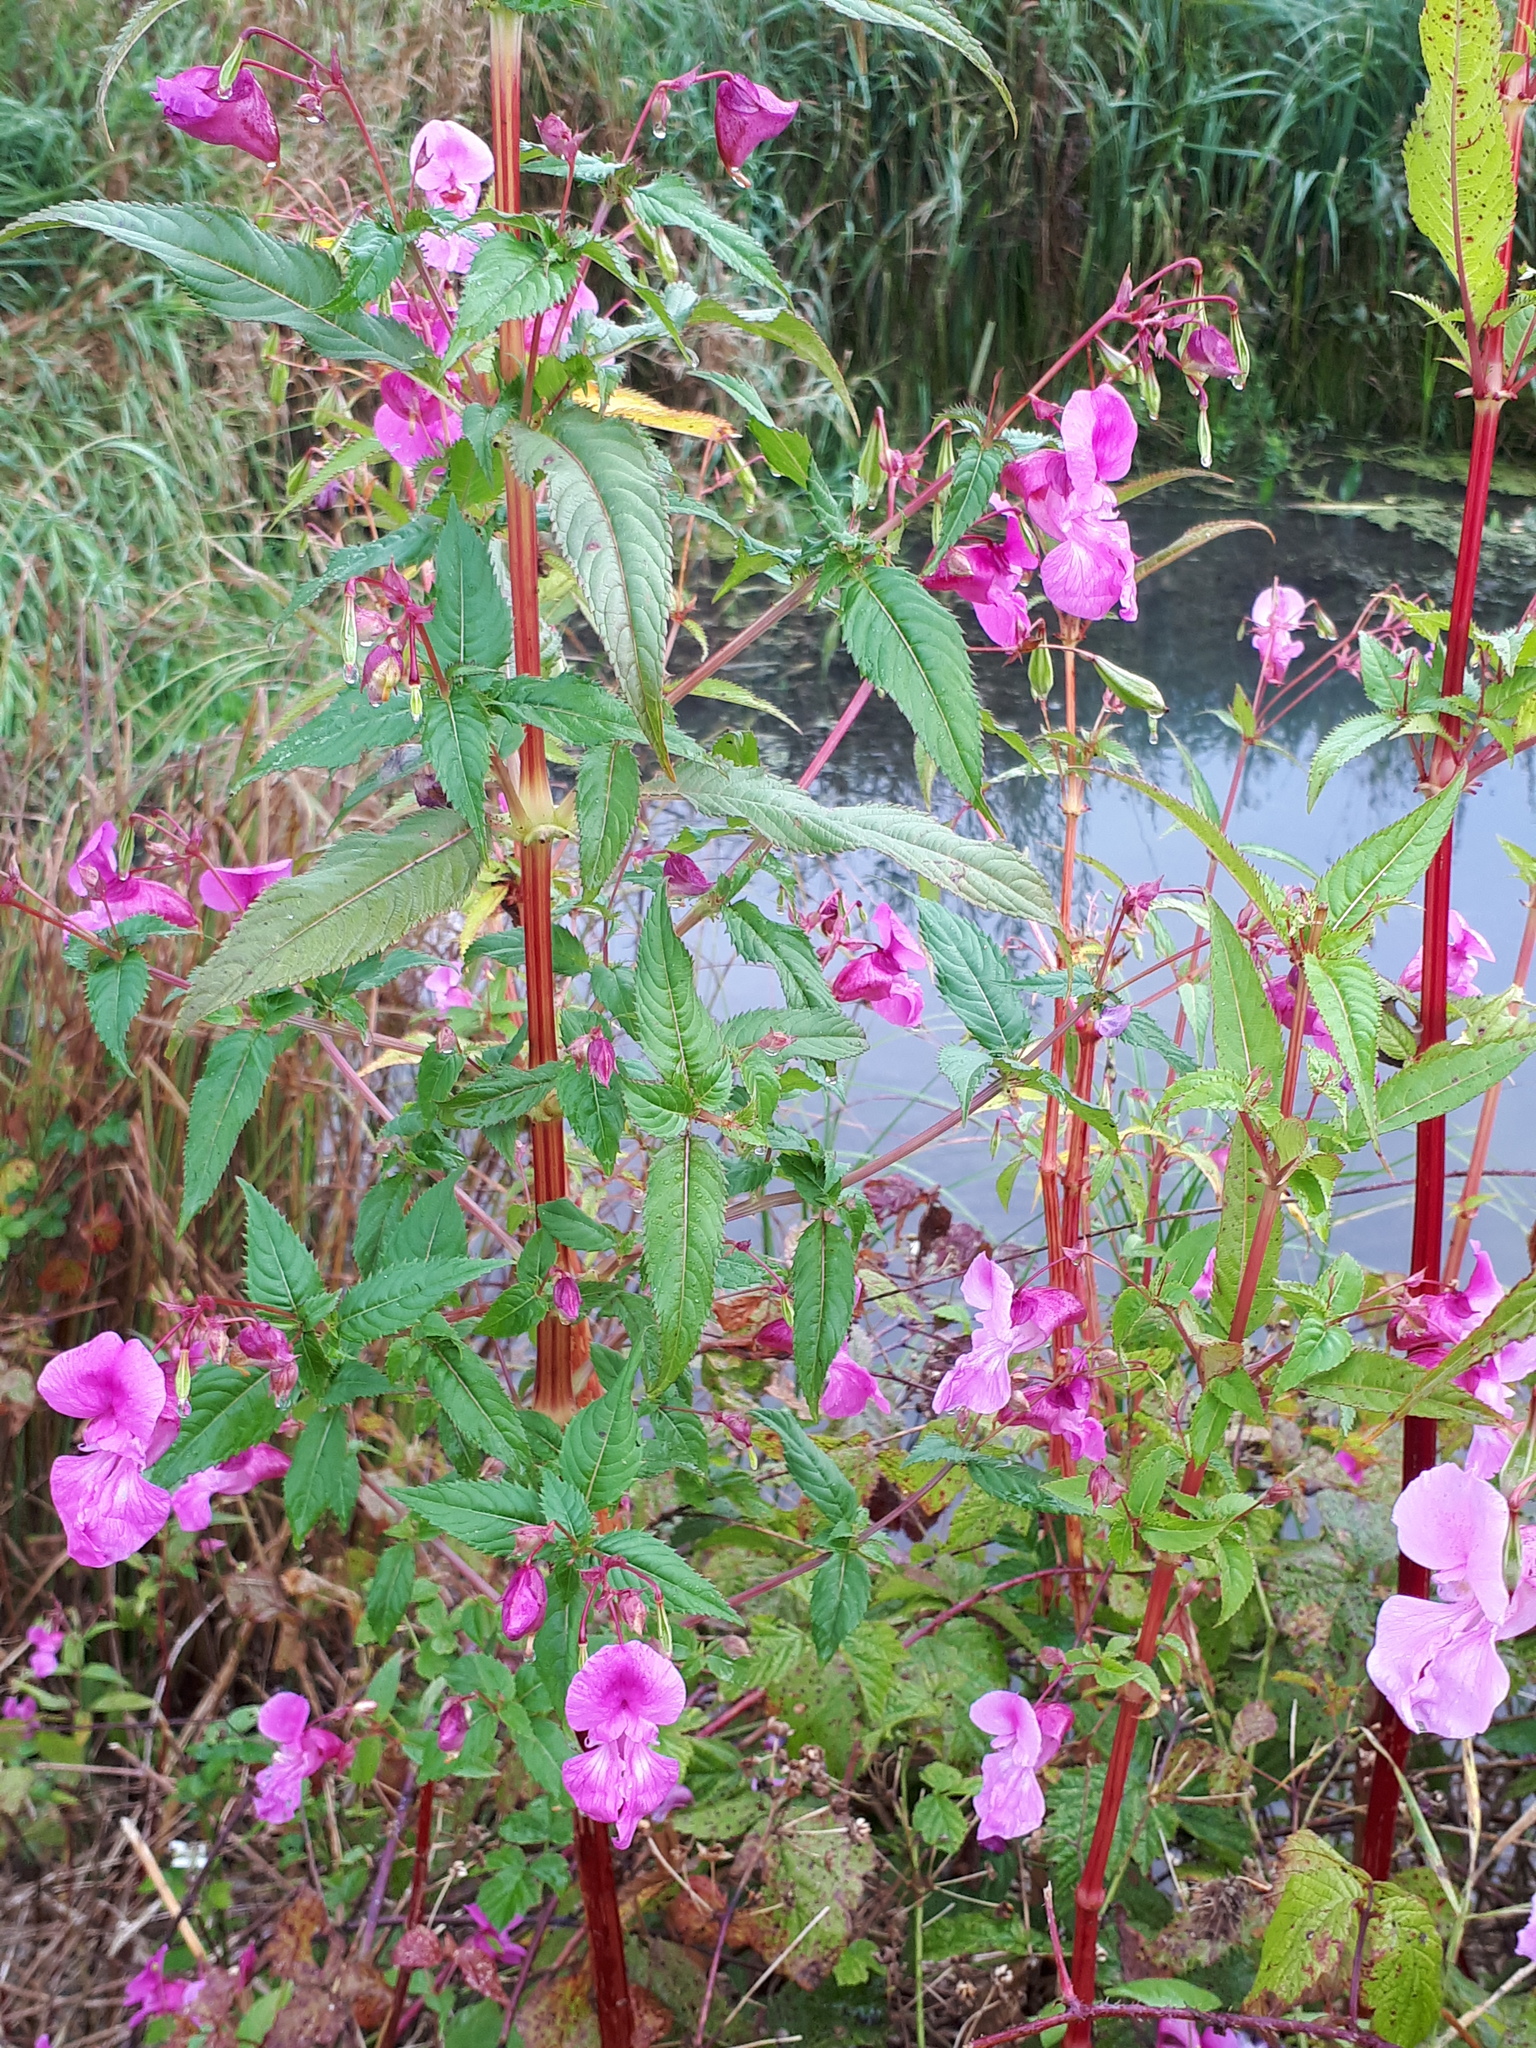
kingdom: Plantae
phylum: Tracheophyta
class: Magnoliopsida
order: Ericales
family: Balsaminaceae
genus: Impatiens
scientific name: Impatiens glandulifera
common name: Himalayan balsam
